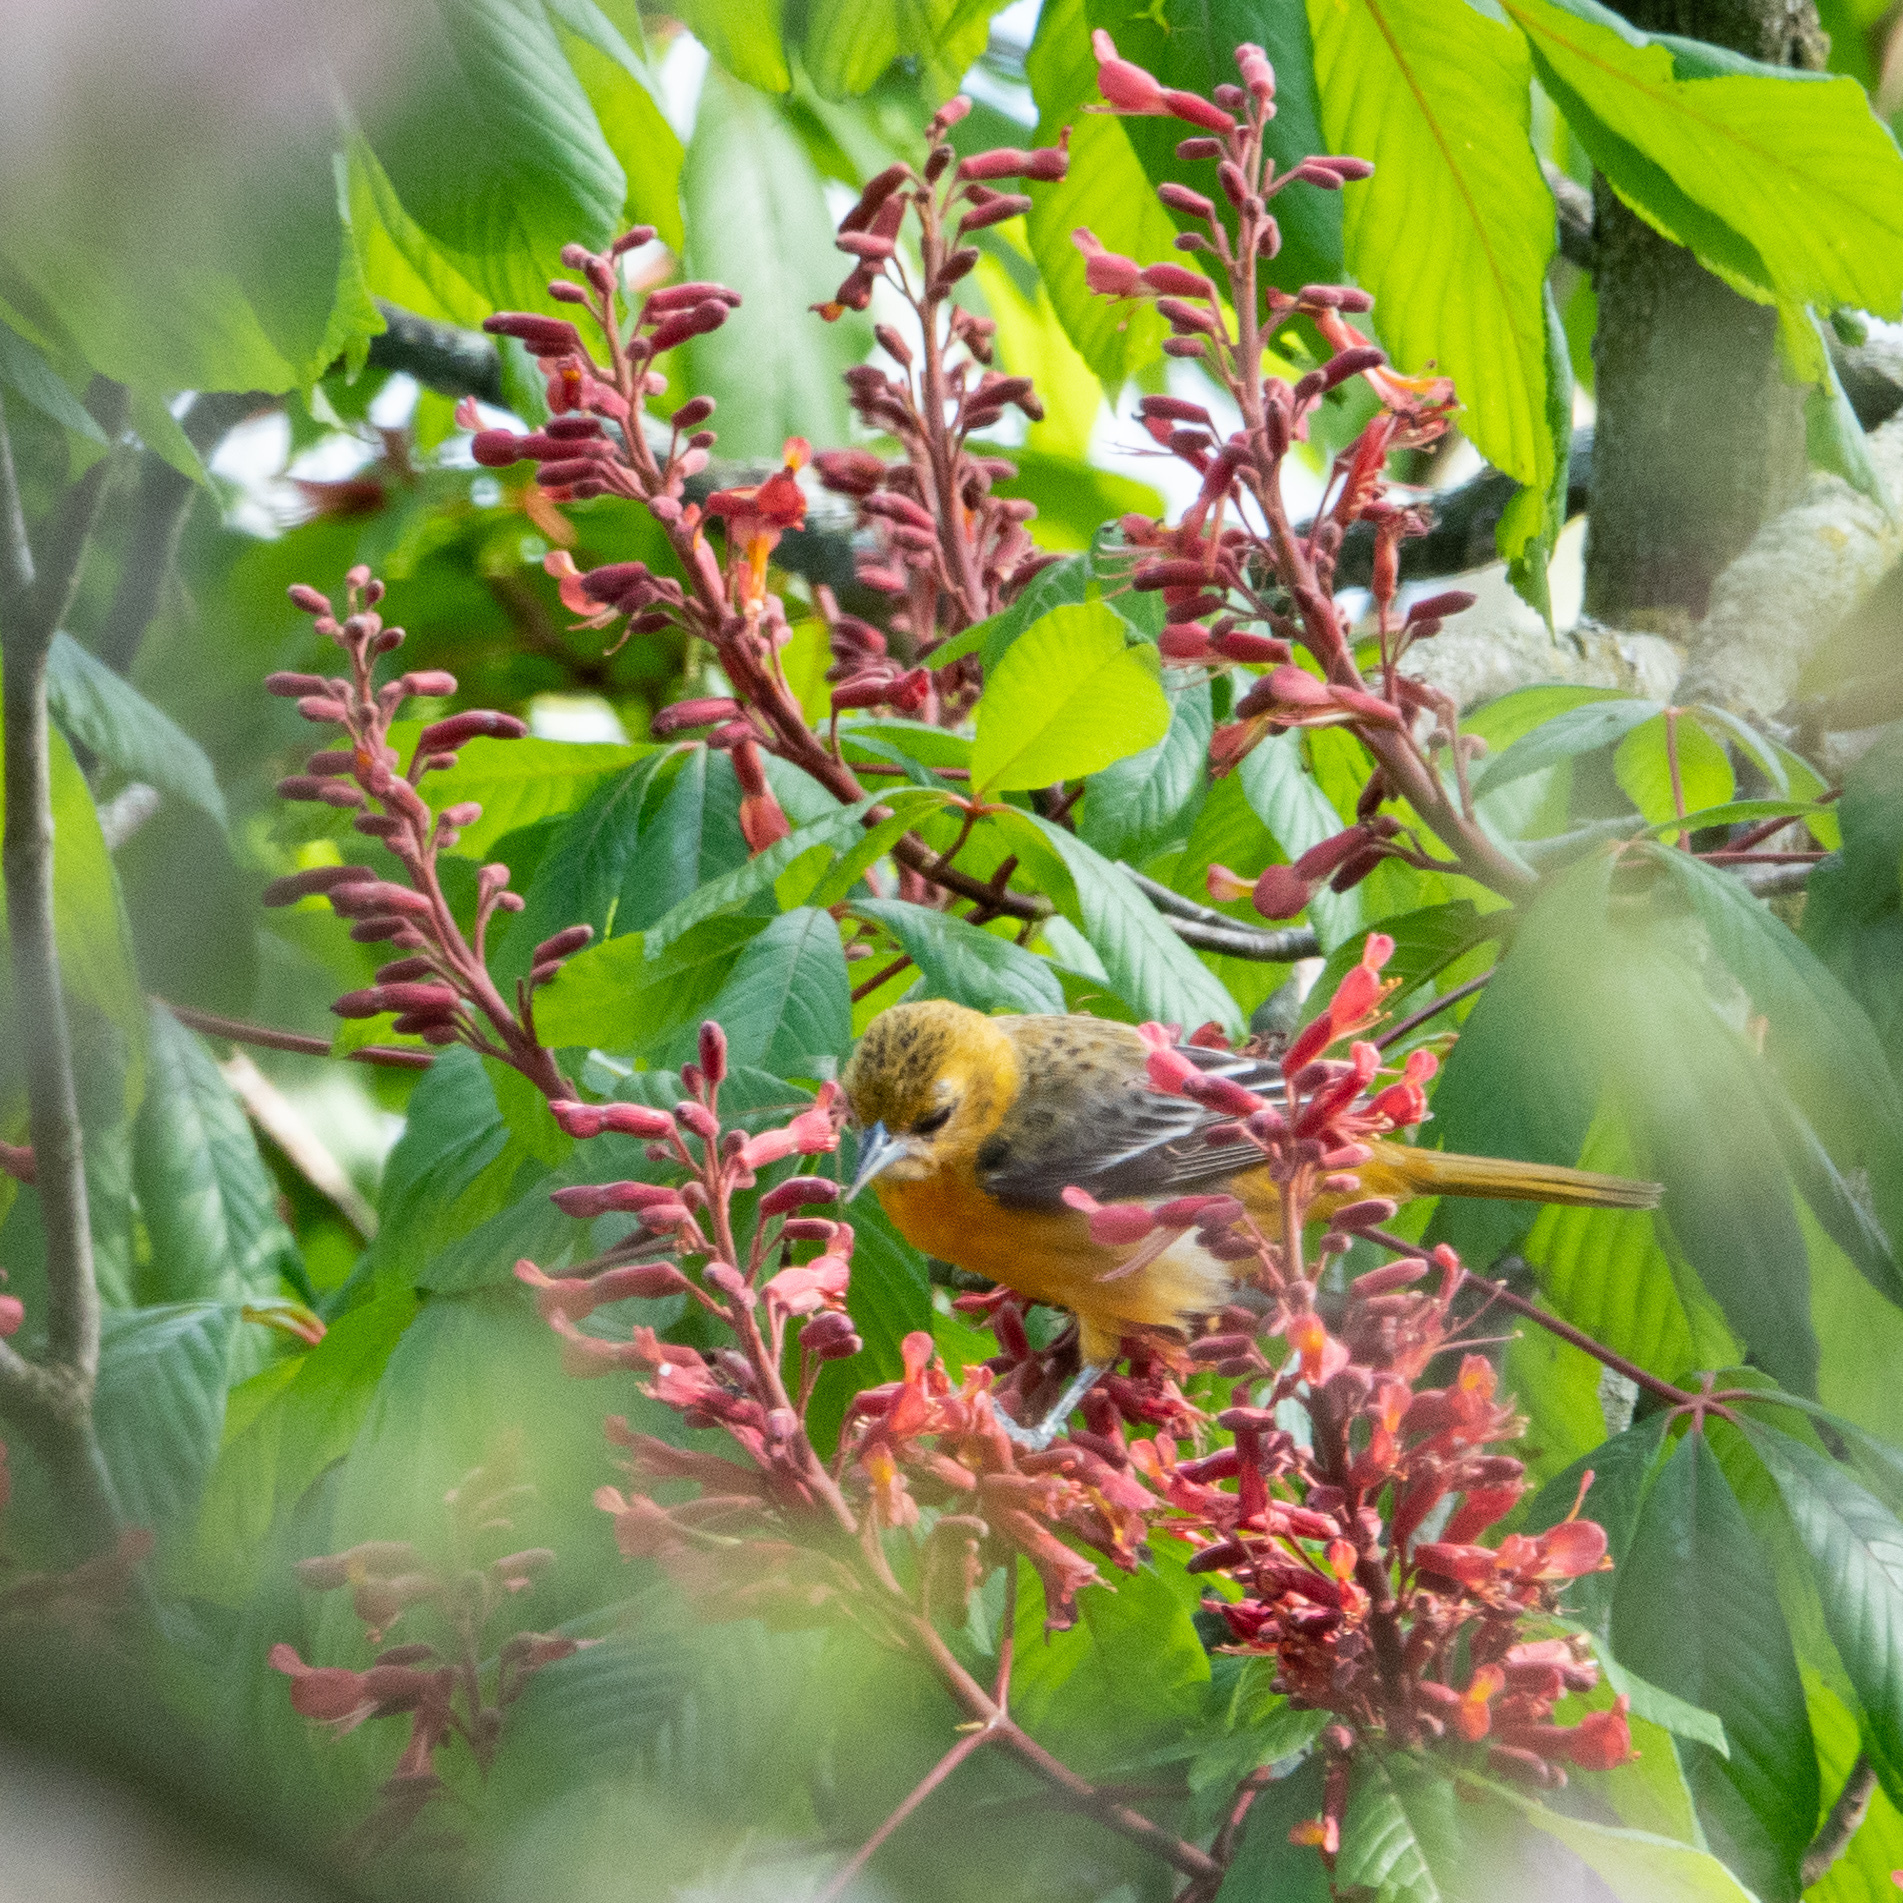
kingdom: Animalia
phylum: Chordata
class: Aves
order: Passeriformes
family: Icteridae
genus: Icterus
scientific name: Icterus galbula
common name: Baltimore oriole
